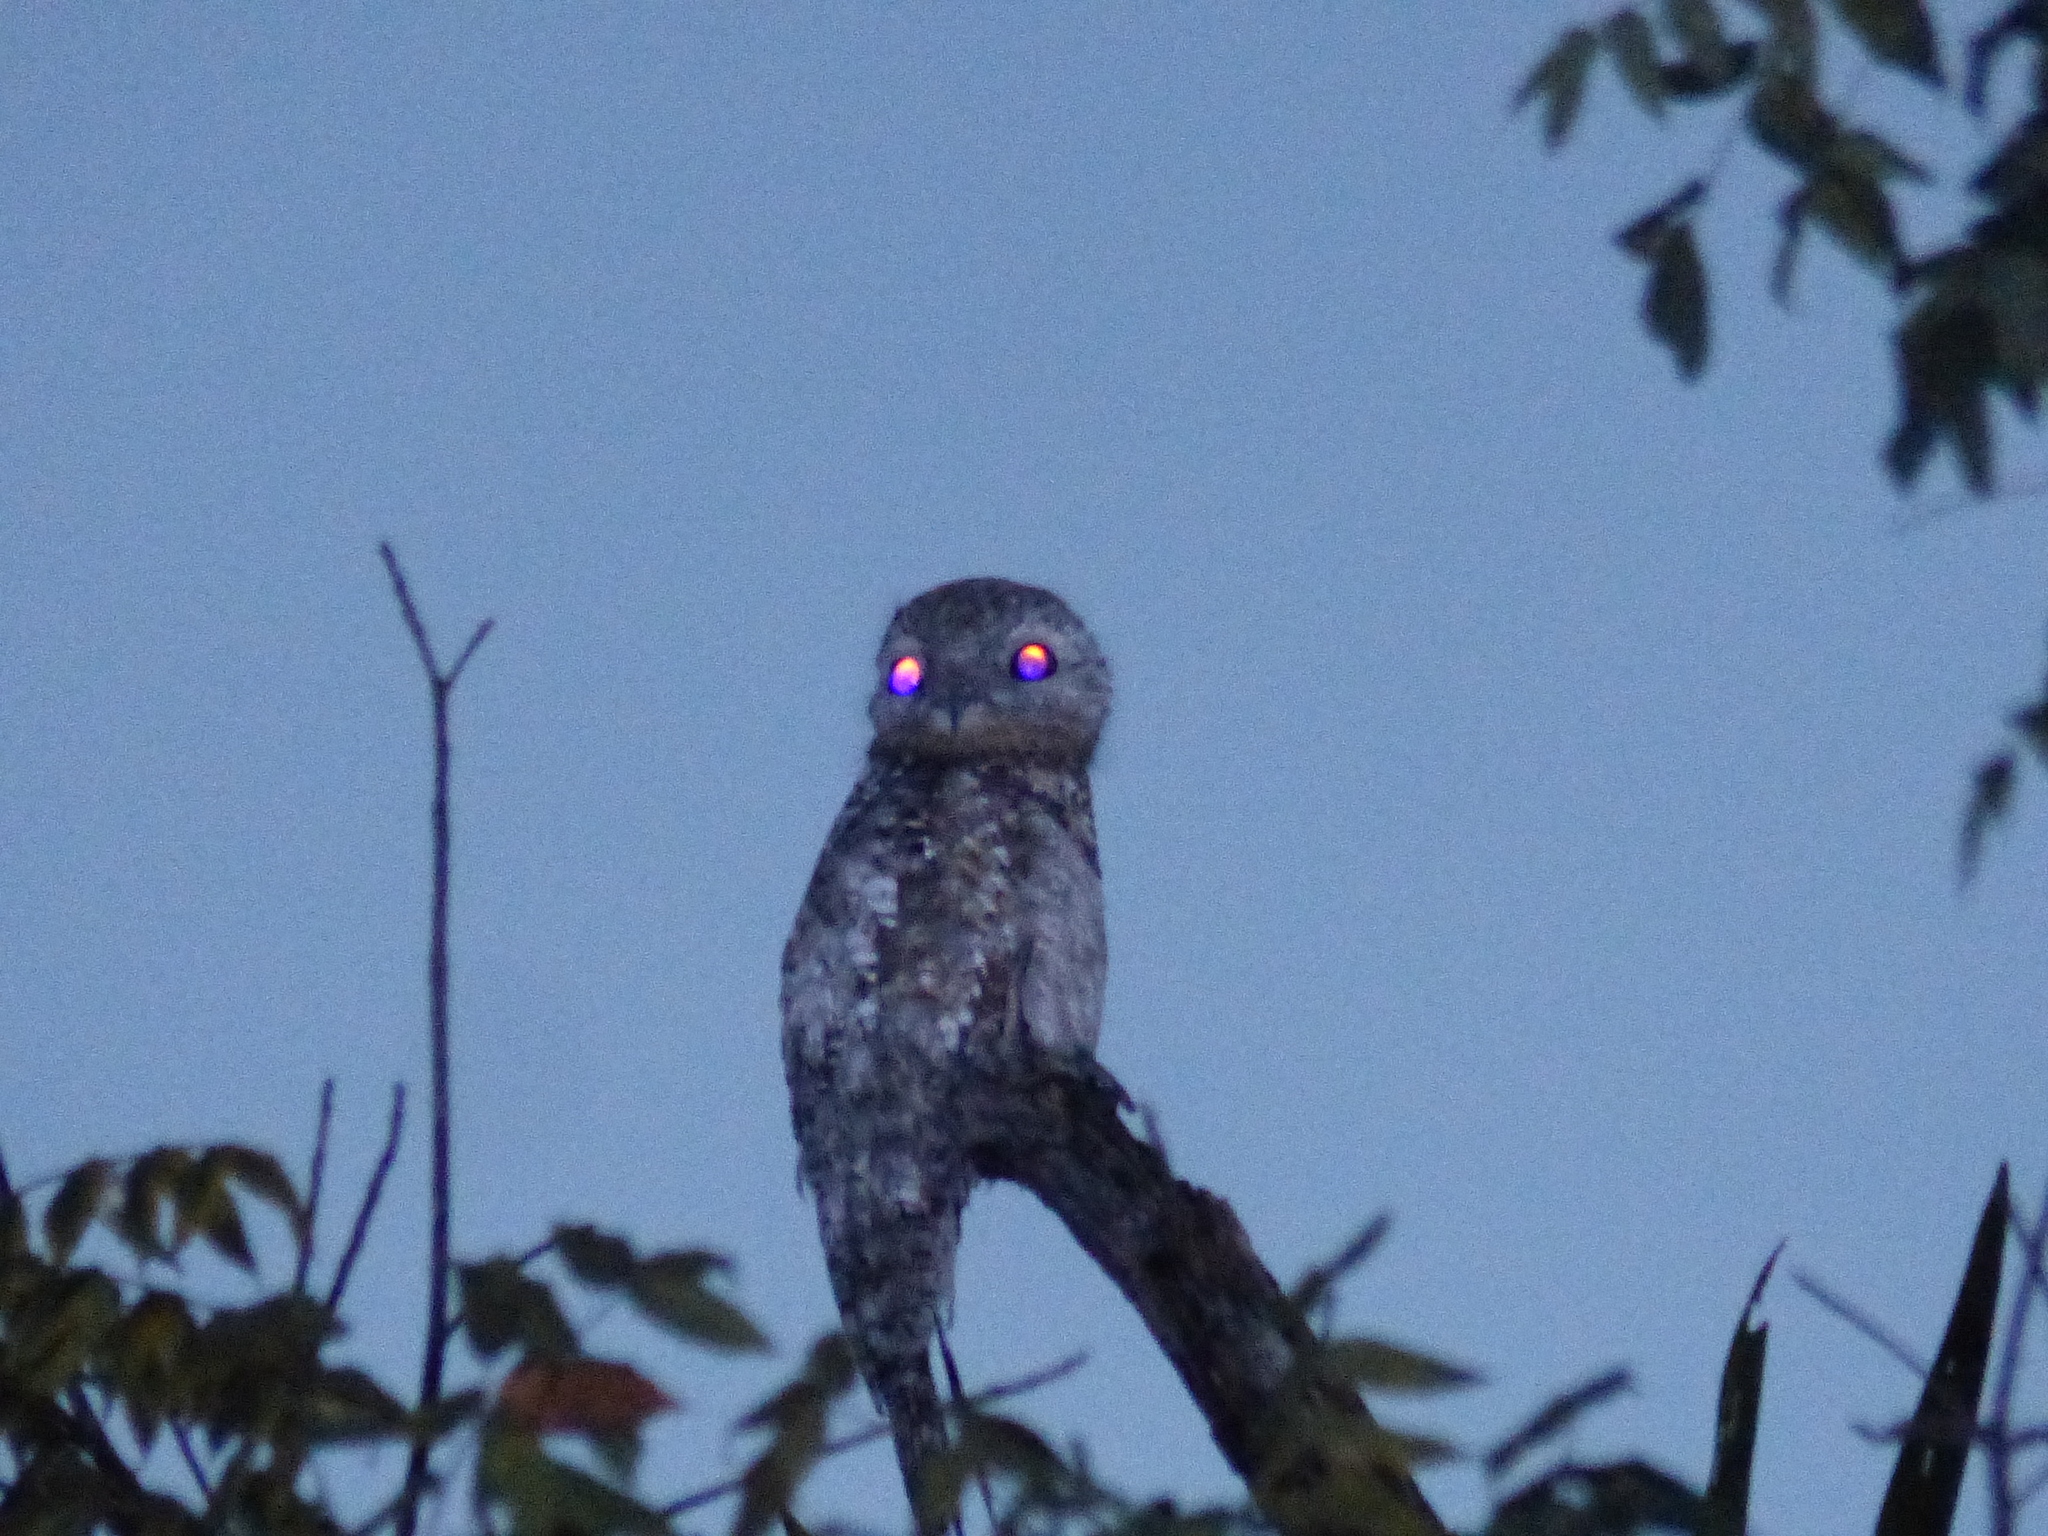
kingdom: Animalia
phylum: Chordata
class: Aves
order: Nyctibiiformes
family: Nyctibiidae
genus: Nyctibius
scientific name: Nyctibius grandis
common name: Great potoo
